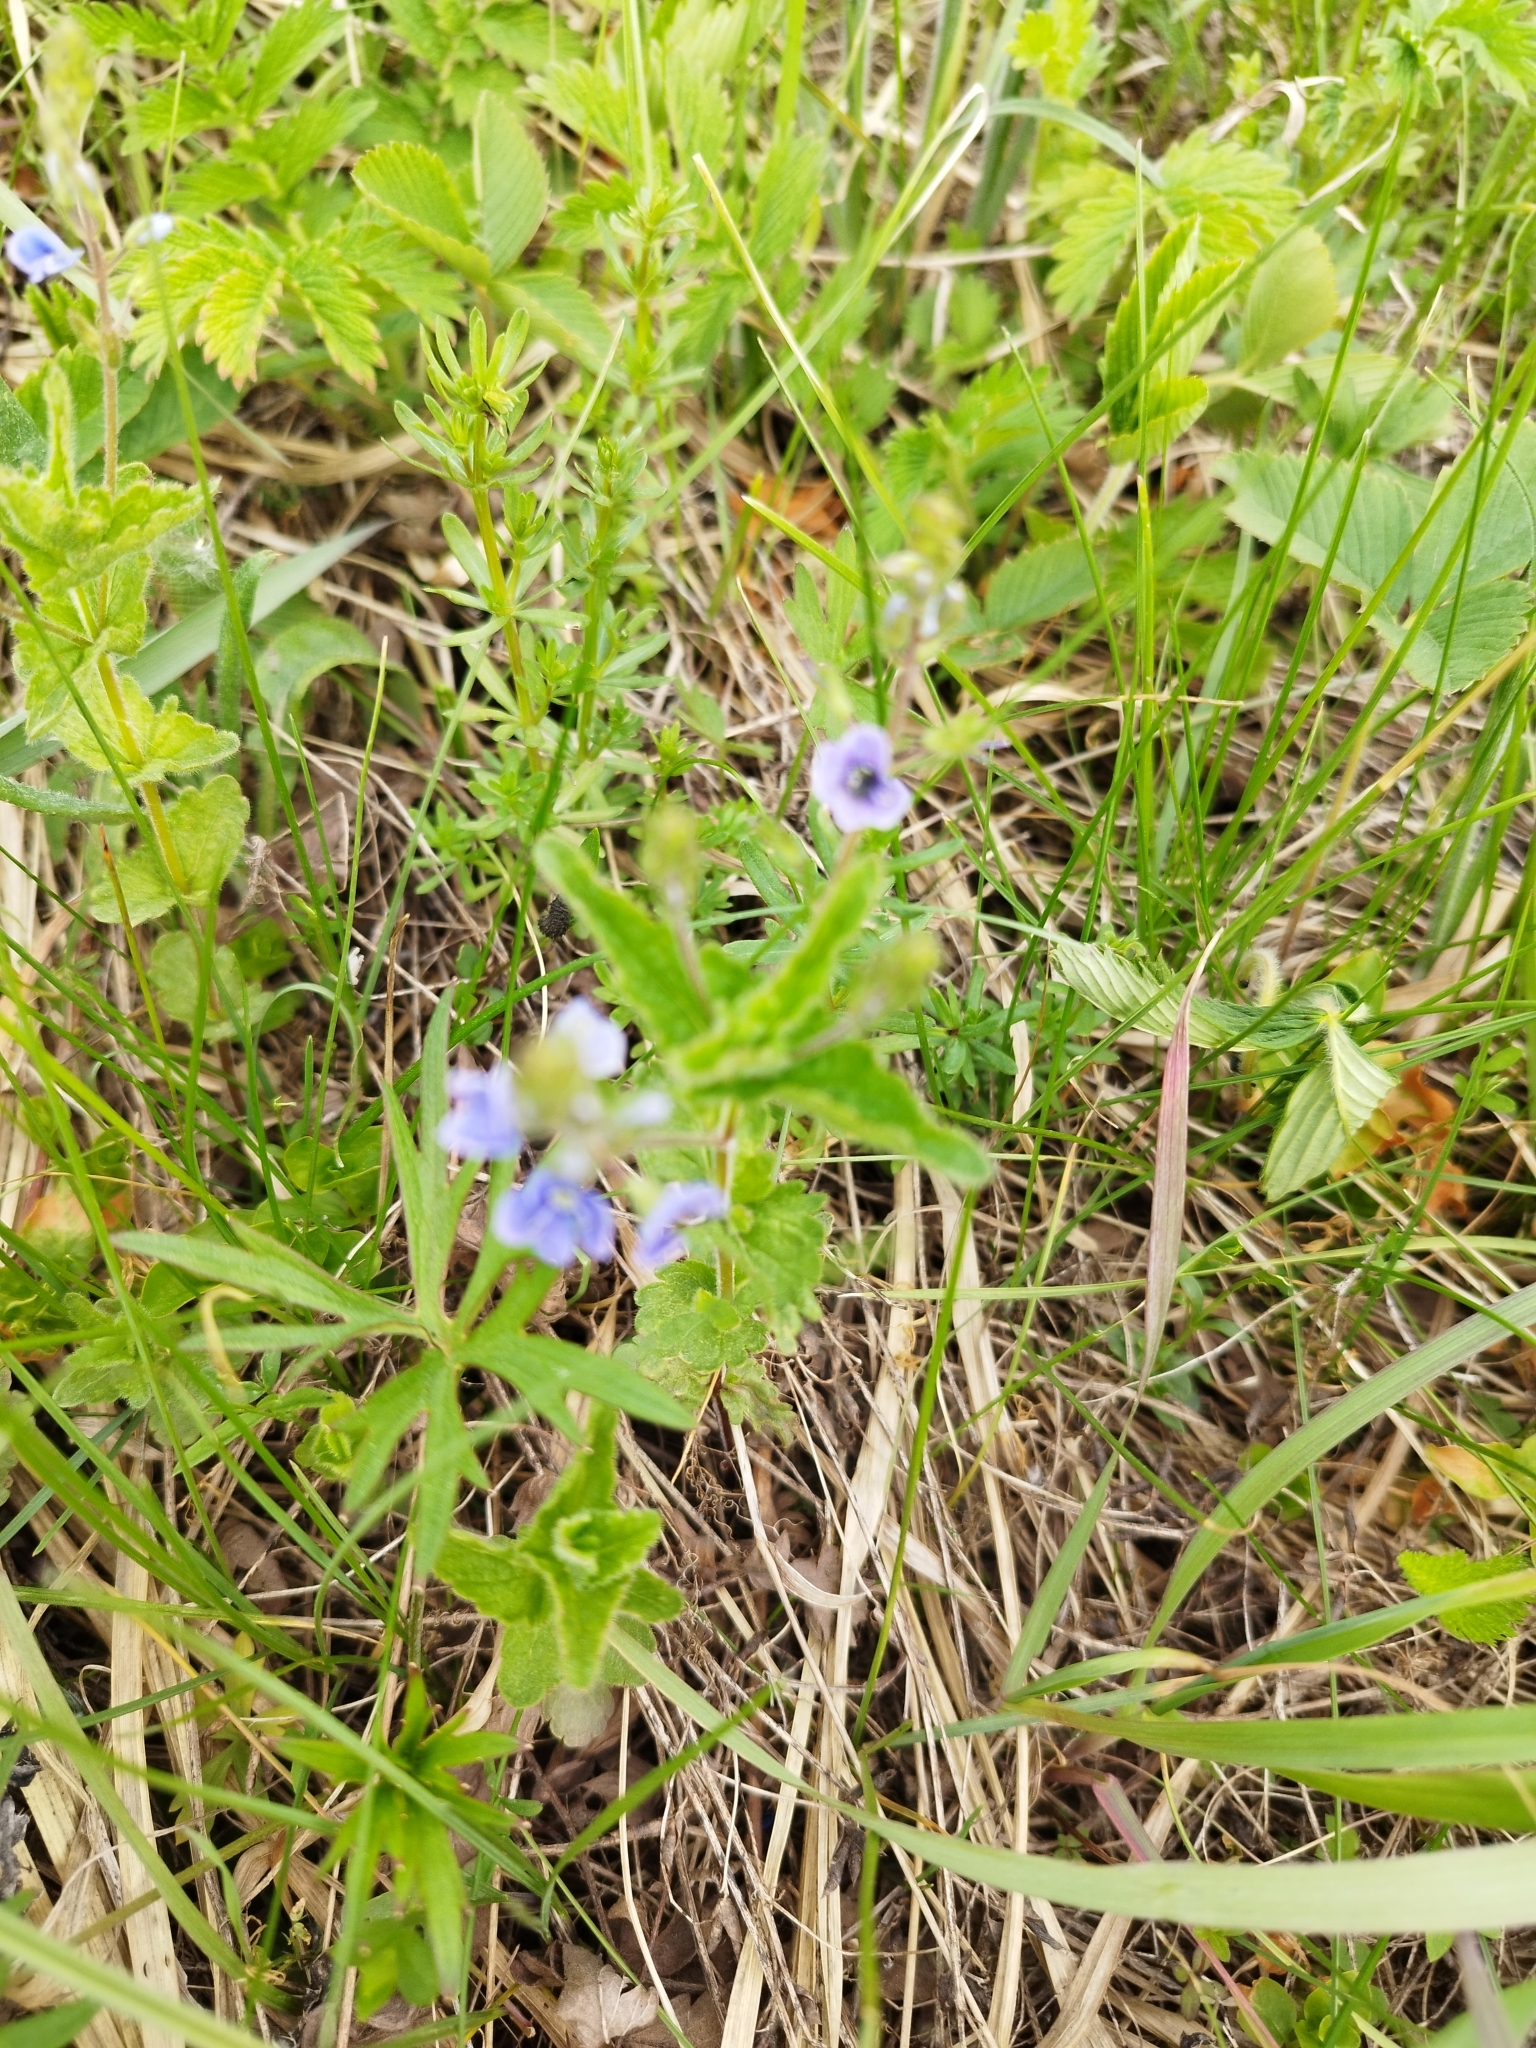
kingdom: Plantae
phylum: Tracheophyta
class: Magnoliopsida
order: Lamiales
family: Plantaginaceae
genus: Veronica
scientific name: Veronica chamaedrys
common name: Germander speedwell
